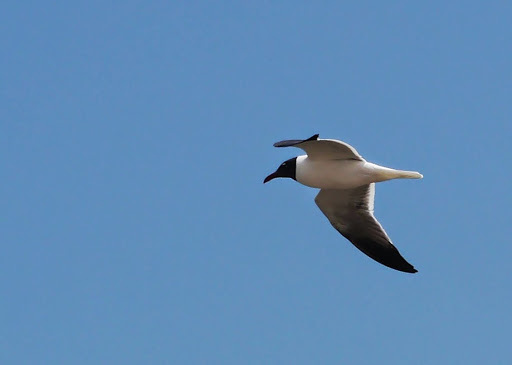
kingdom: Animalia
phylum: Chordata
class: Aves
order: Charadriiformes
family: Laridae
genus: Leucophaeus
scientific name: Leucophaeus atricilla
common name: Laughing gull
